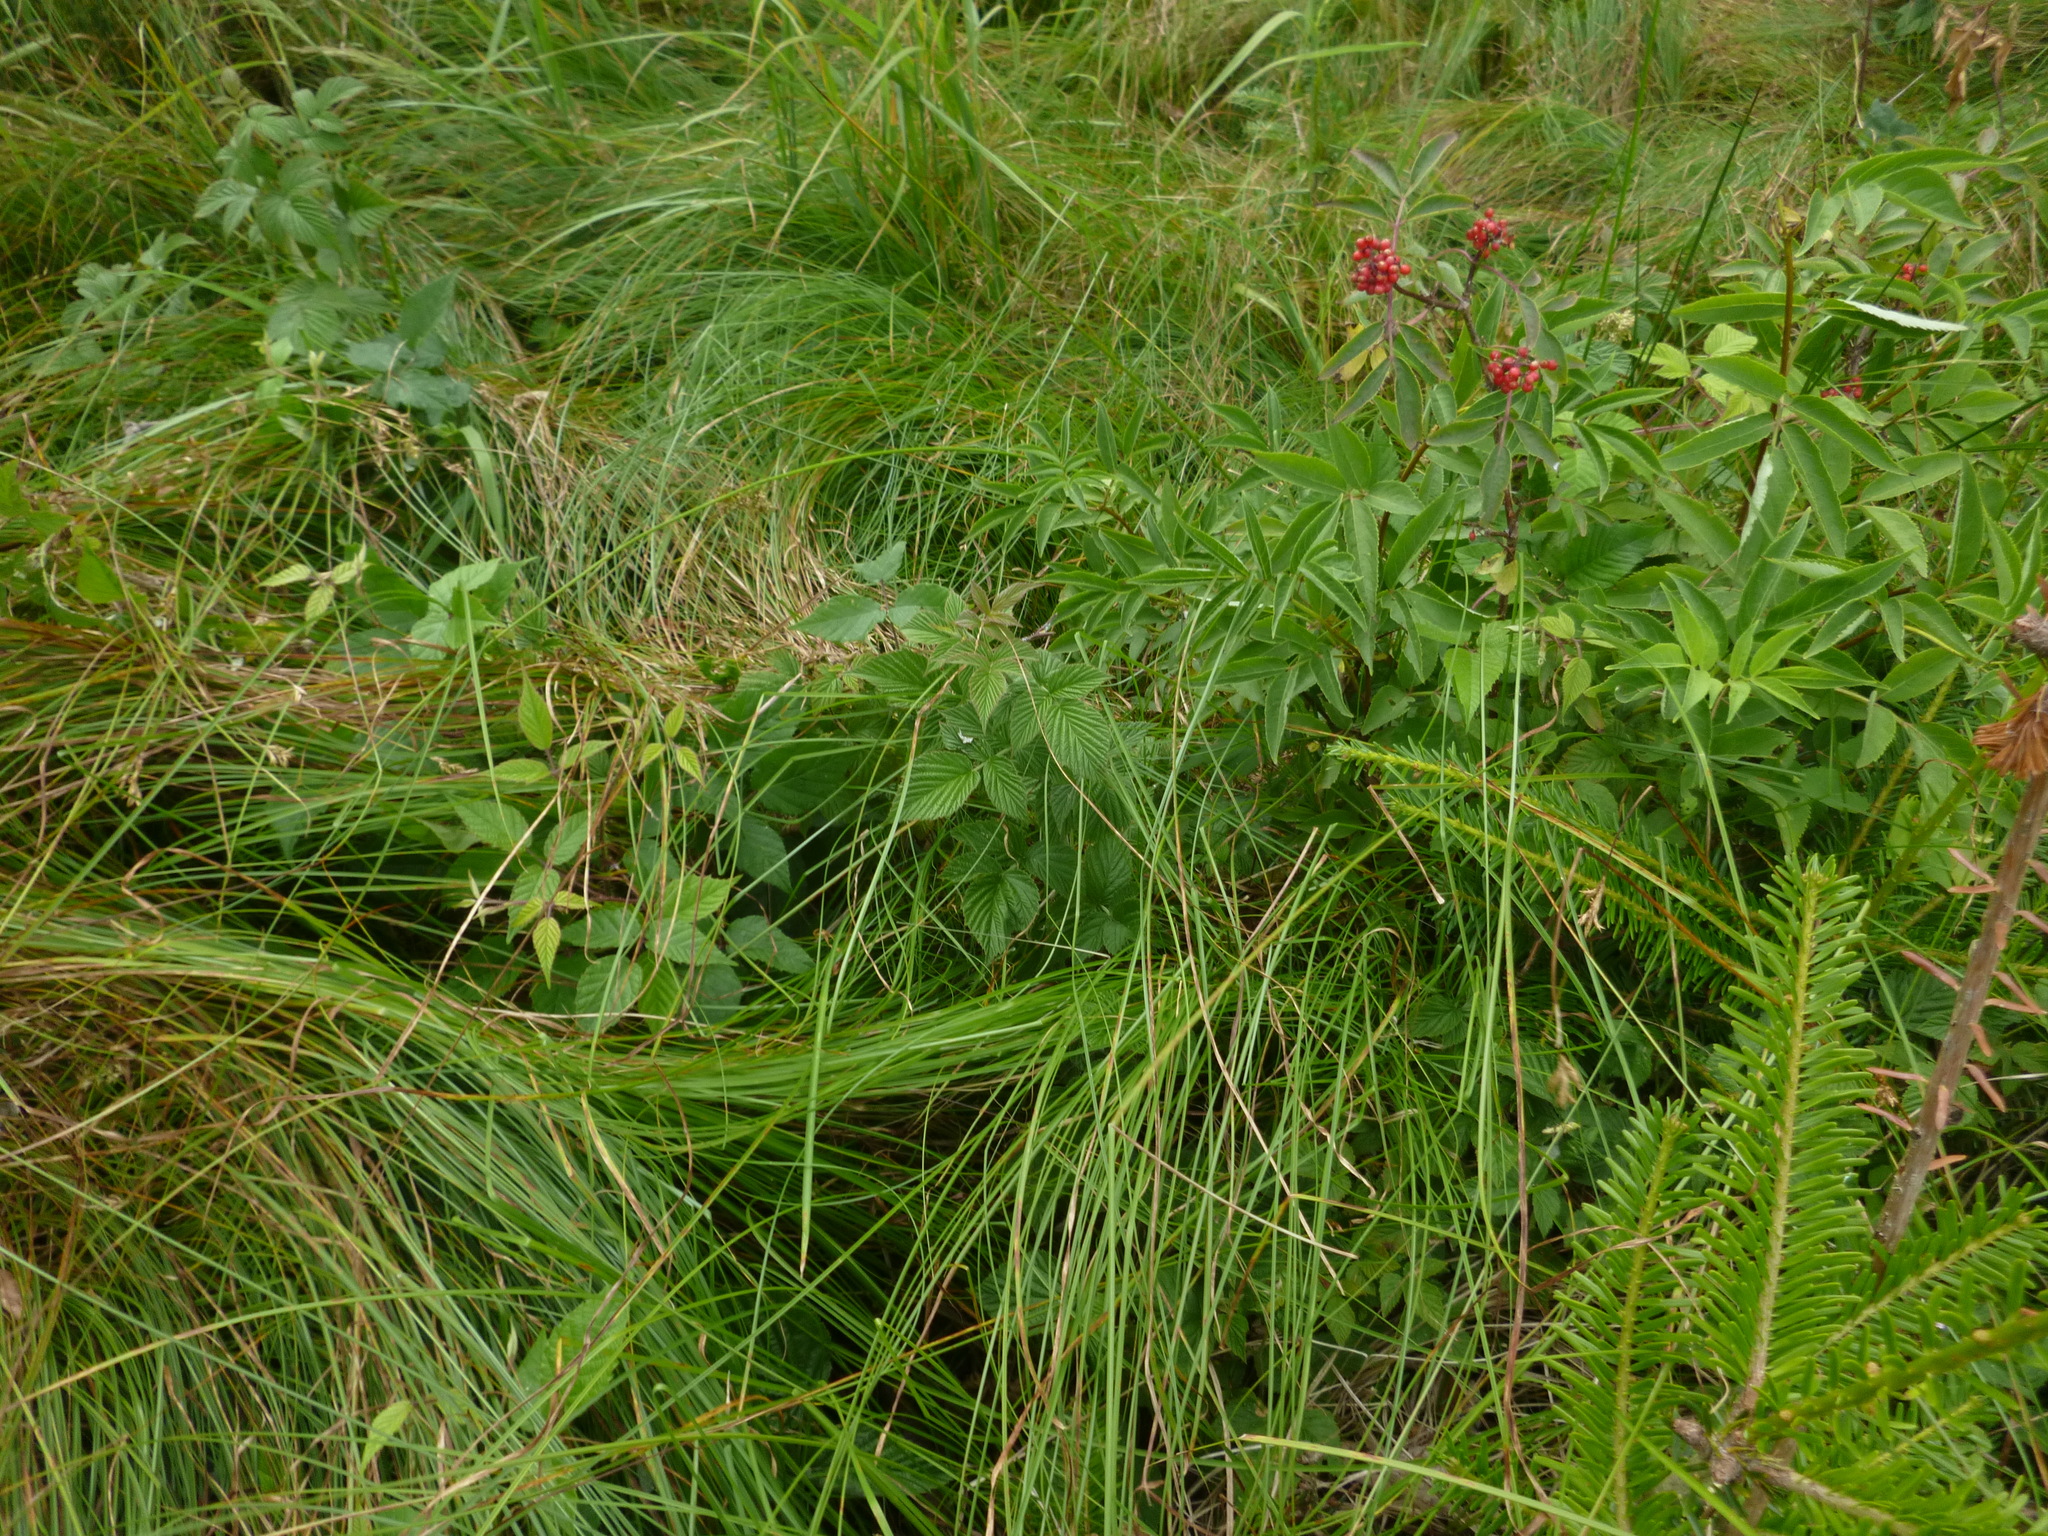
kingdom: Plantae
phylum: Tracheophyta
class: Magnoliopsida
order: Rosales
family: Rosaceae
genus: Rubus
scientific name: Rubus idaeus
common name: Raspberry
